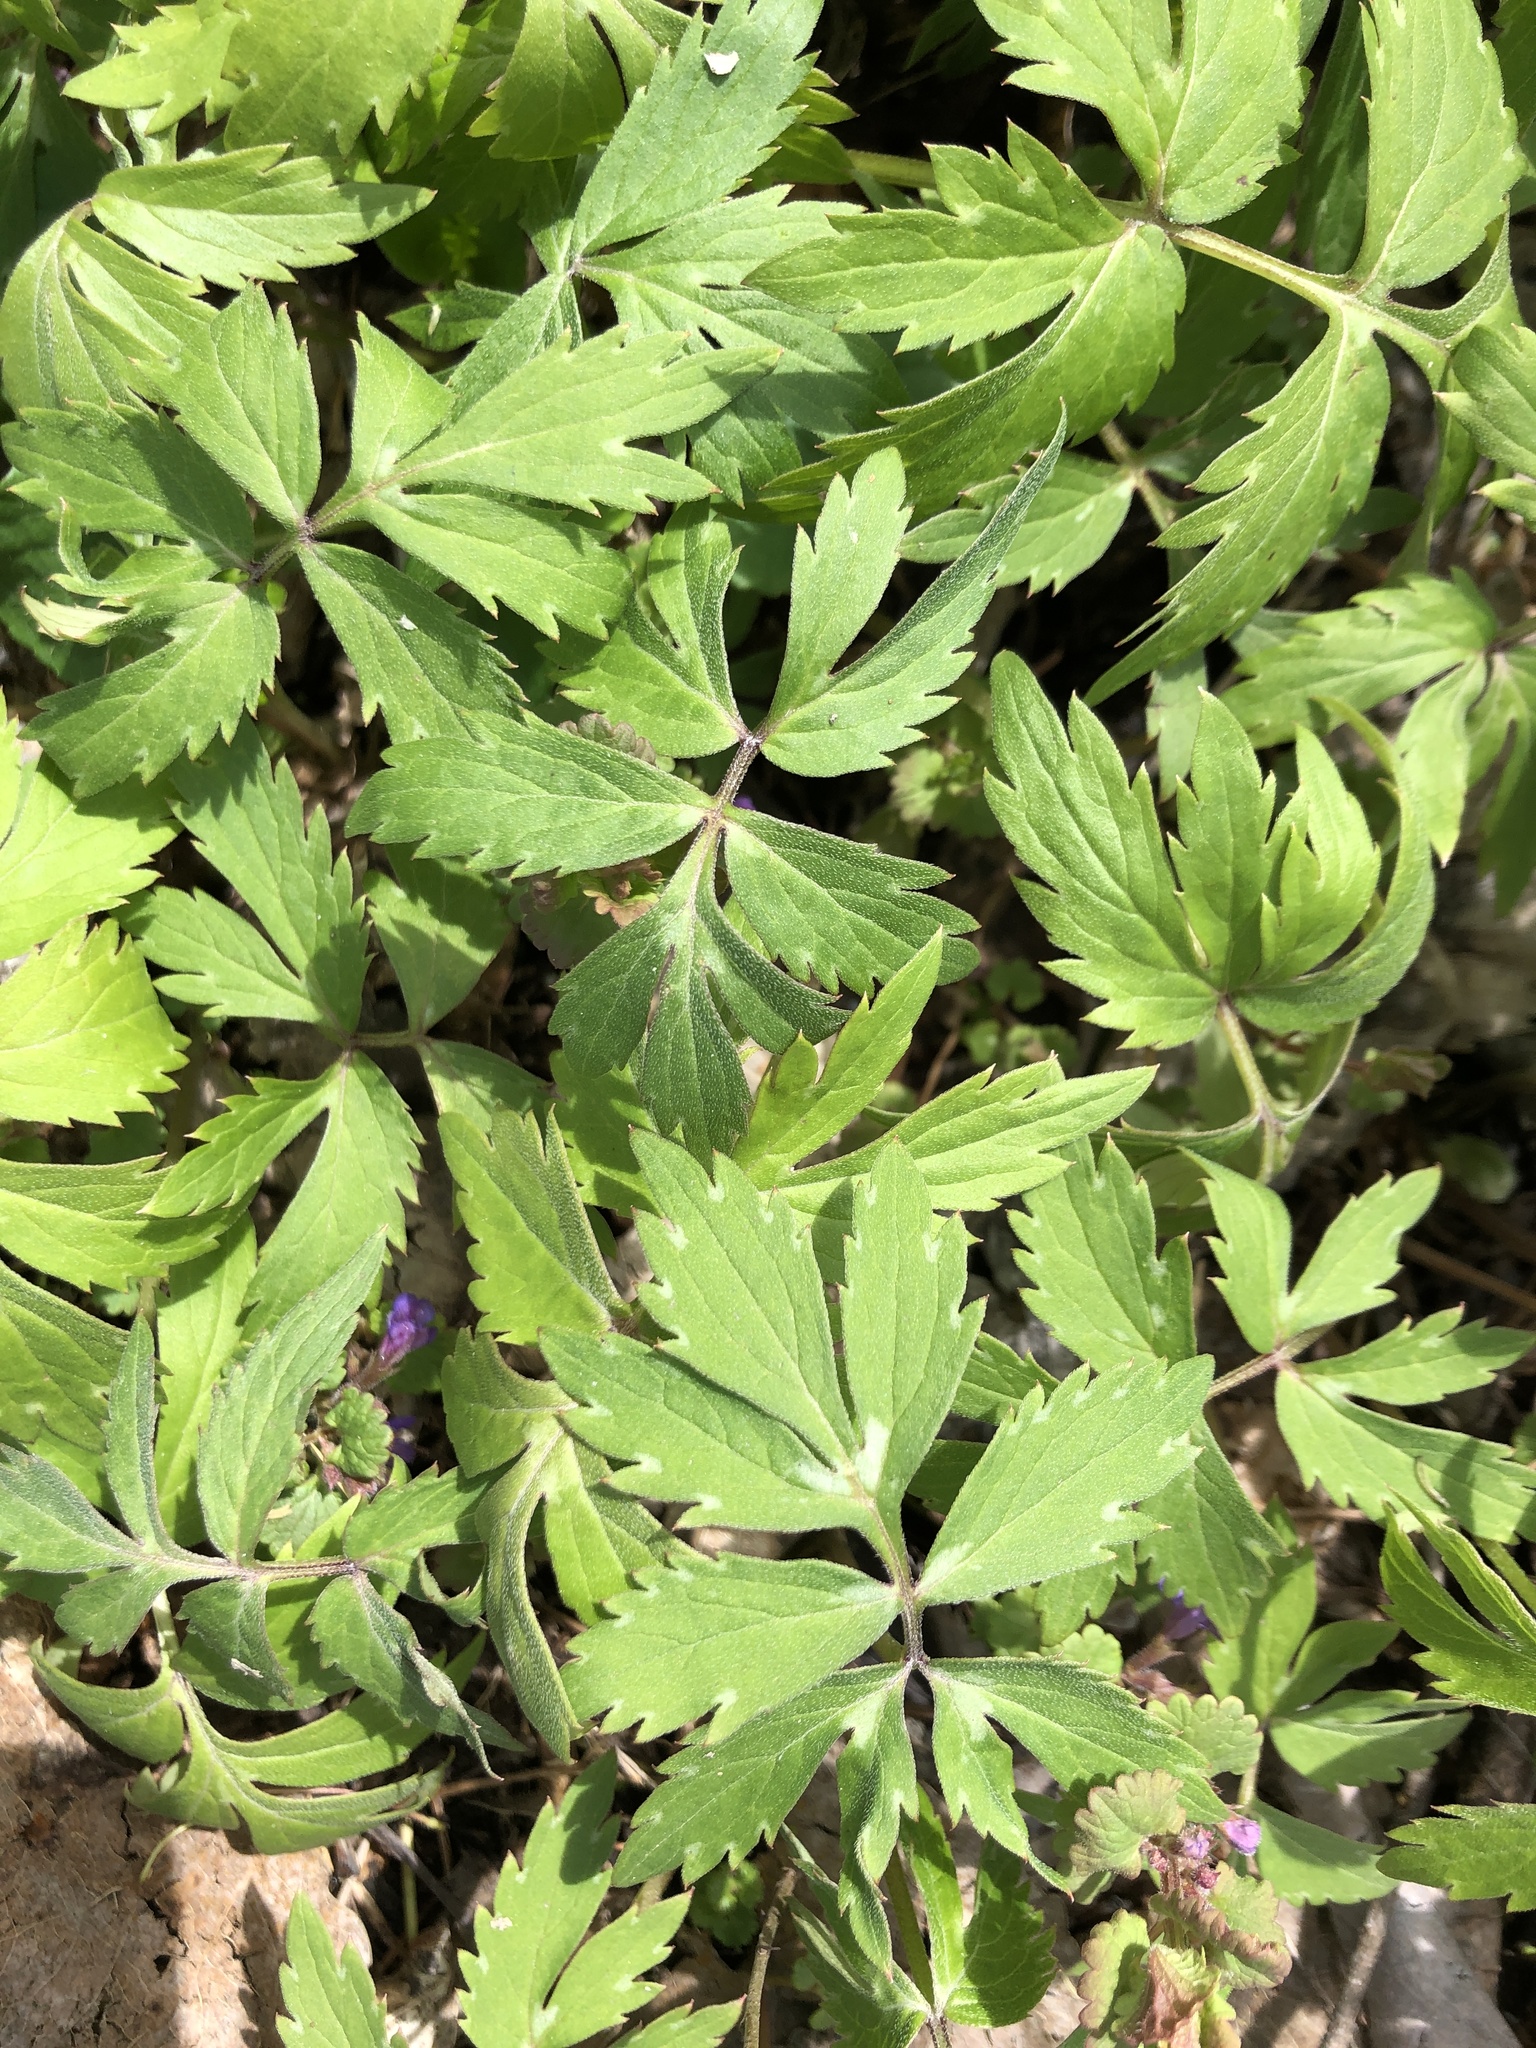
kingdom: Plantae
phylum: Tracheophyta
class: Magnoliopsida
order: Boraginales
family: Hydrophyllaceae
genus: Hydrophyllum
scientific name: Hydrophyllum virginianum
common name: Virginia waterleaf
